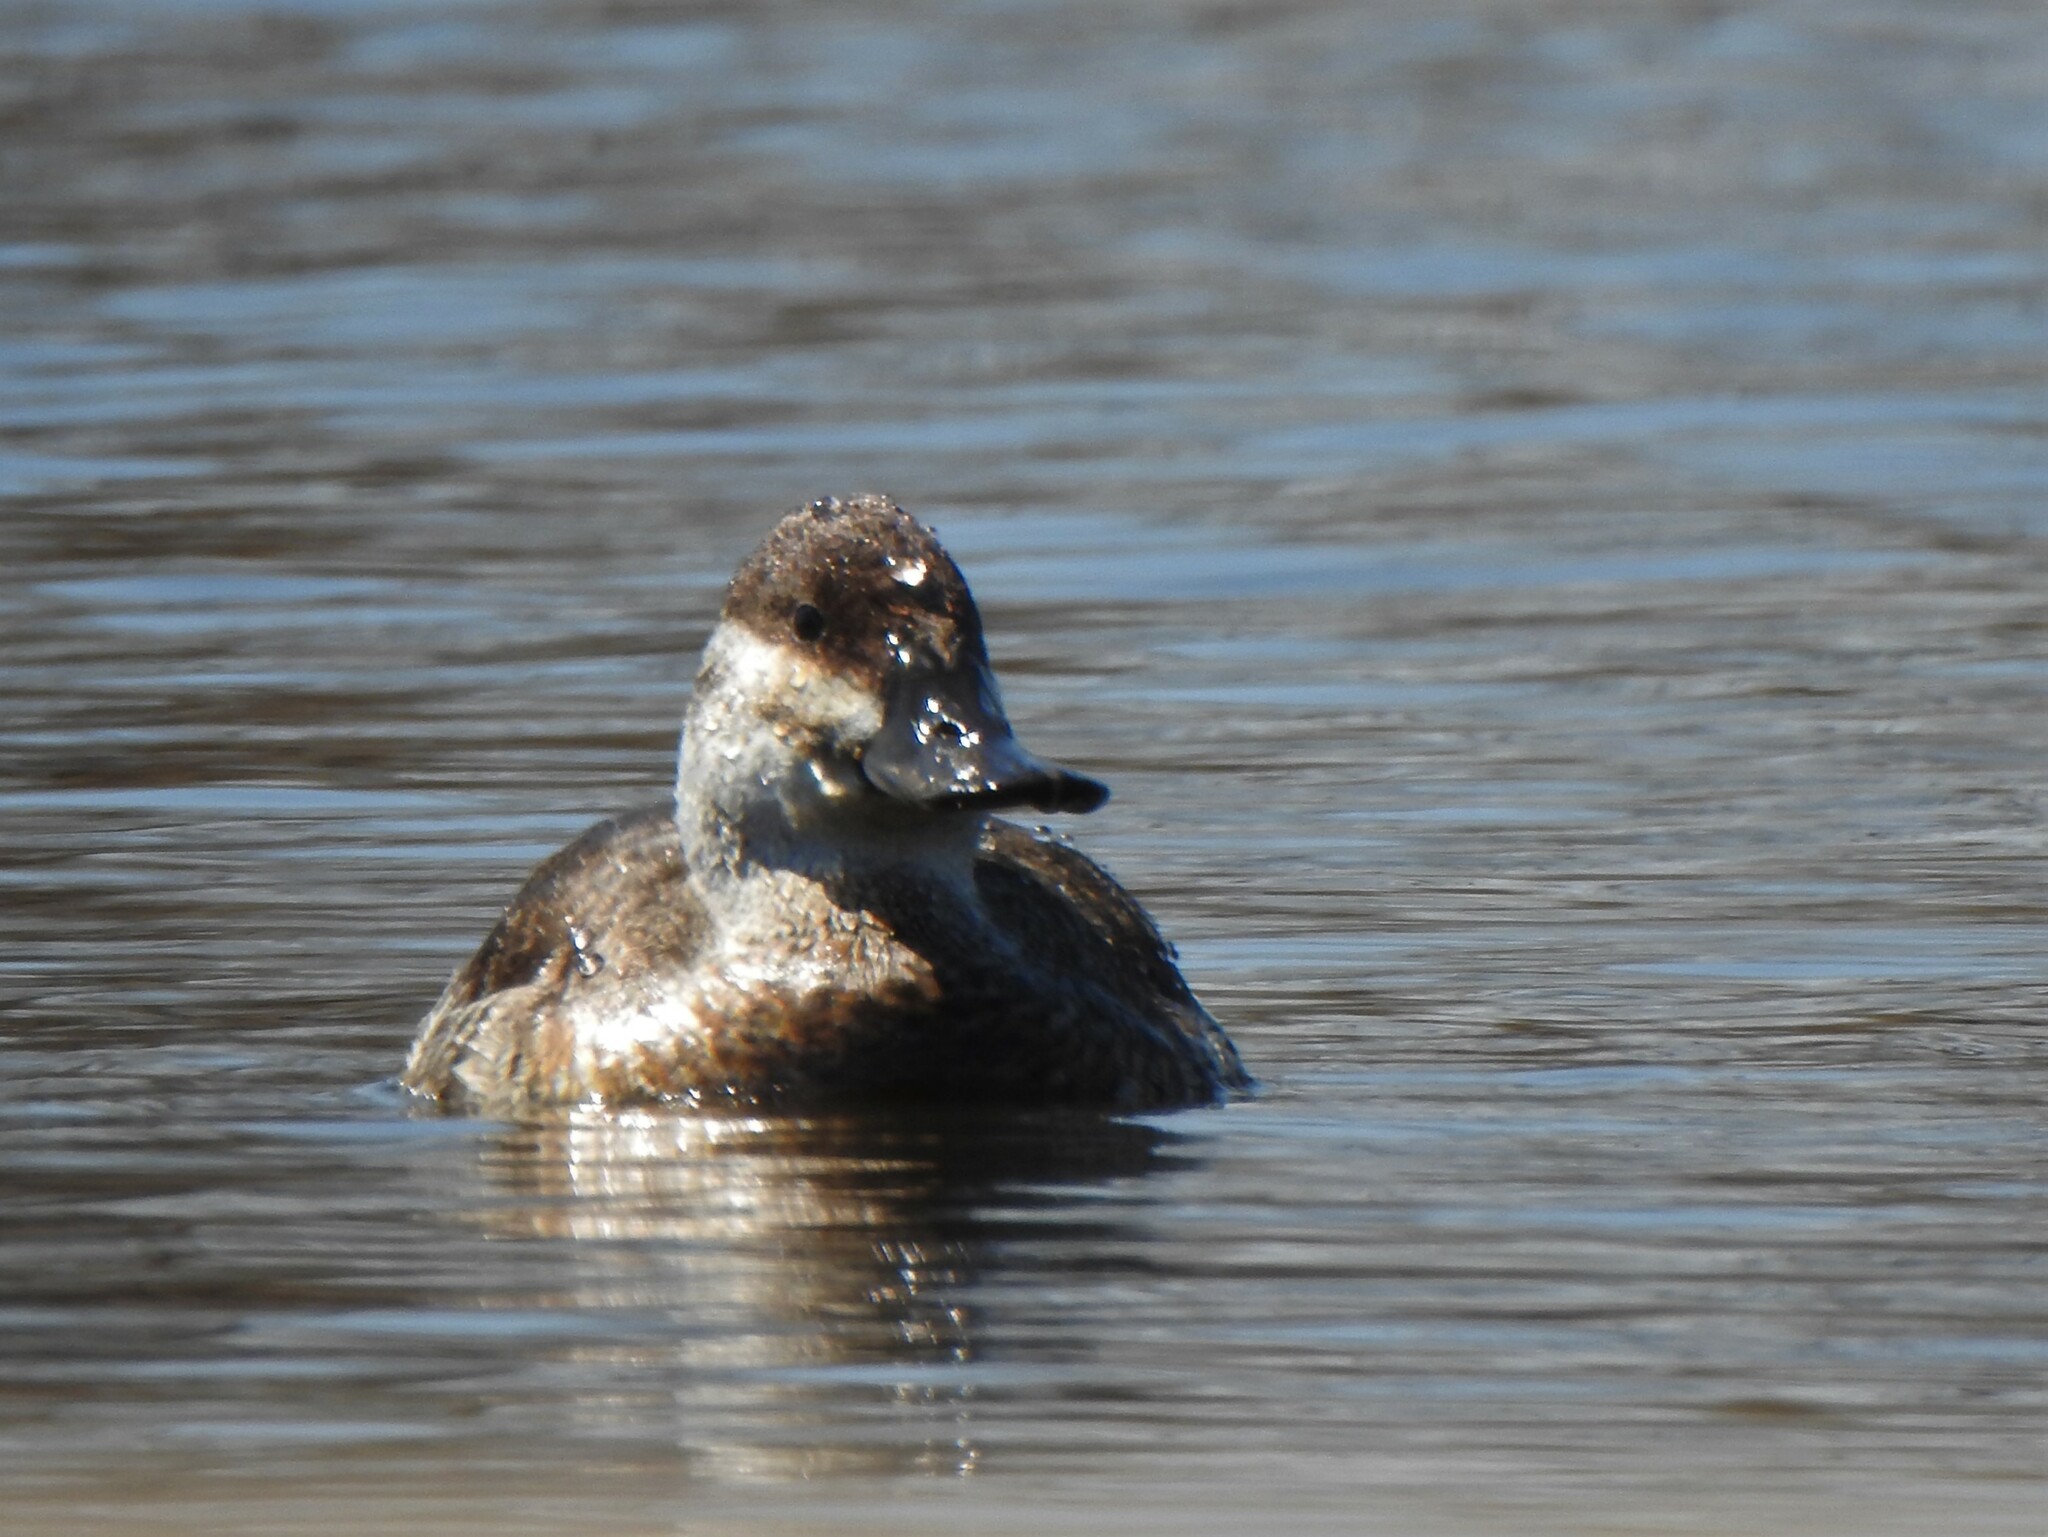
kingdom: Animalia
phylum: Chordata
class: Aves
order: Anseriformes
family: Anatidae
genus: Oxyura
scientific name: Oxyura jamaicensis
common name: Ruddy duck
